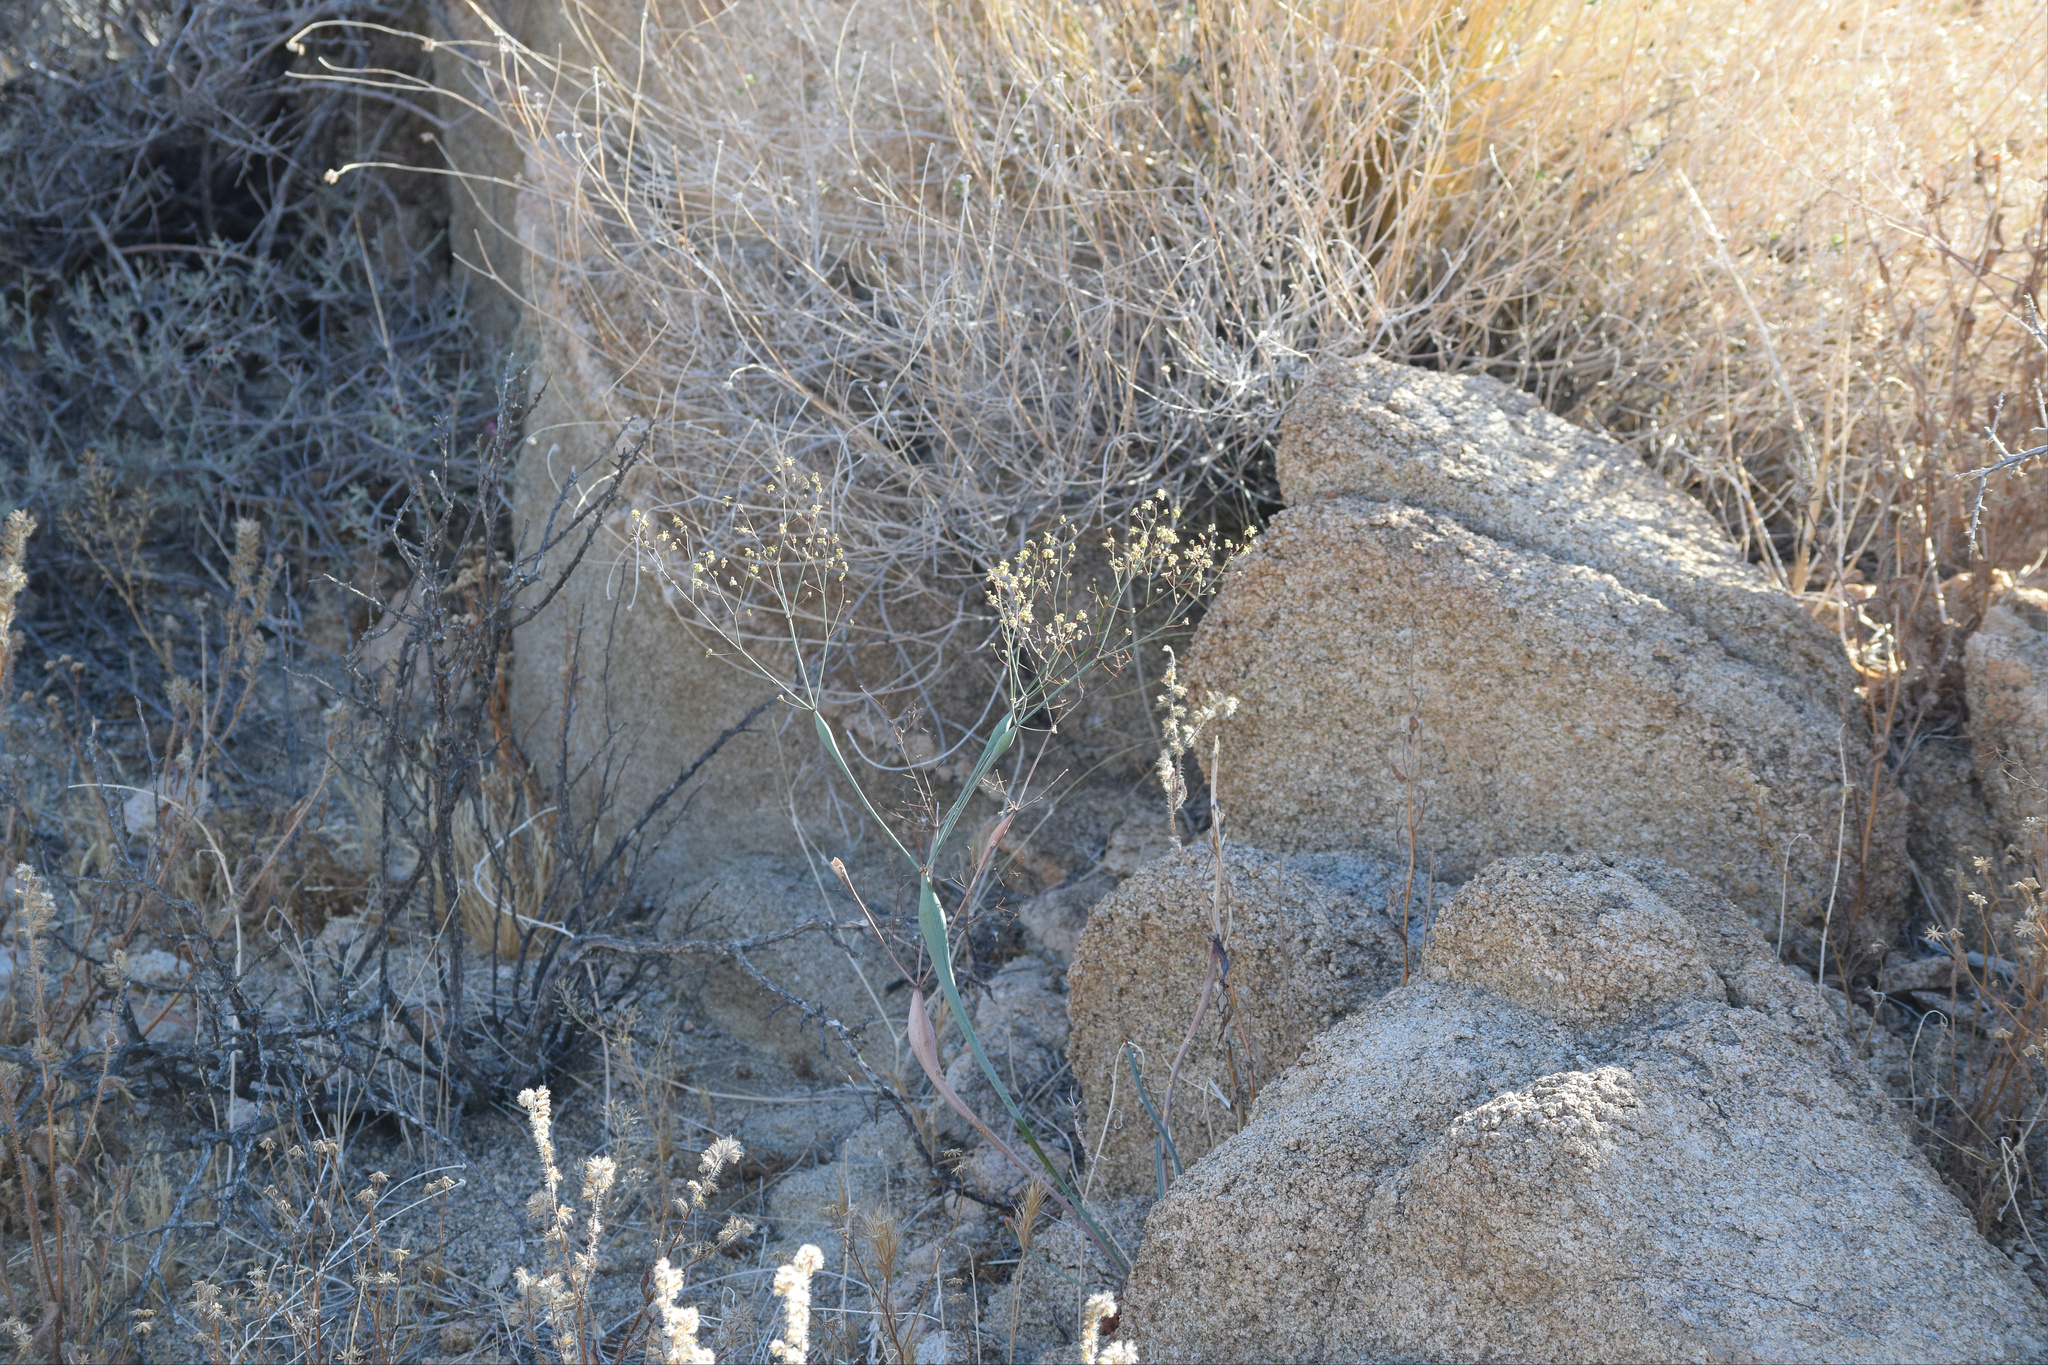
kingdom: Plantae
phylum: Tracheophyta
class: Magnoliopsida
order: Caryophyllales
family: Polygonaceae
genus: Eriogonum
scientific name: Eriogonum inflatum
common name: Desert trumpet
